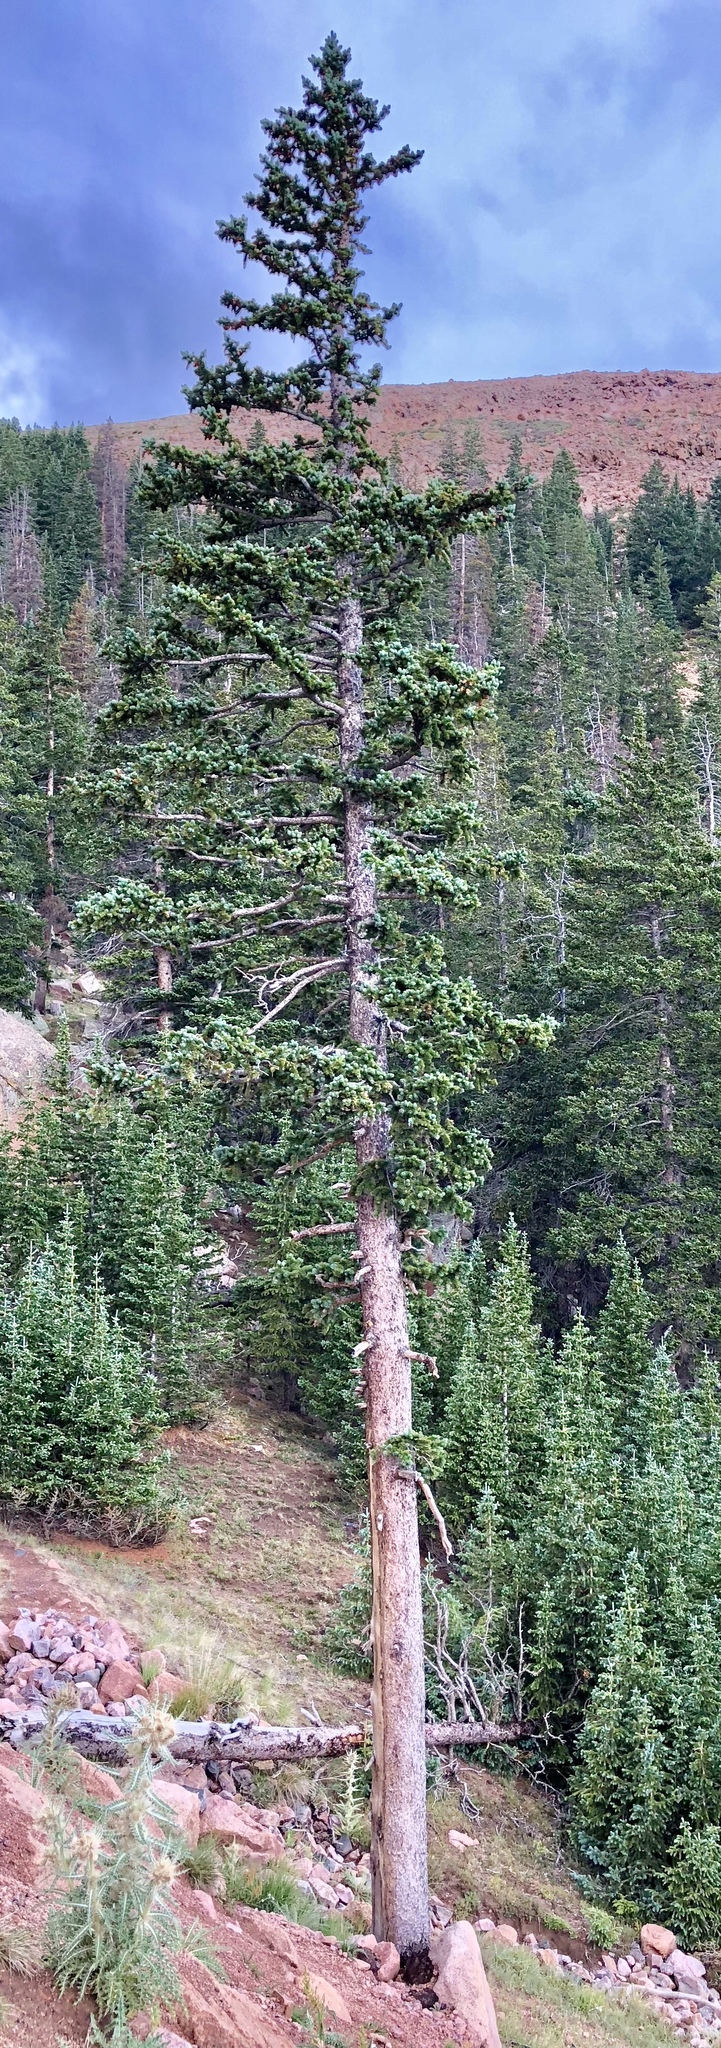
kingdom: Plantae
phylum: Tracheophyta
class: Pinopsida
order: Pinales
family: Pinaceae
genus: Picea
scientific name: Picea engelmannii
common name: Engelmann spruce
